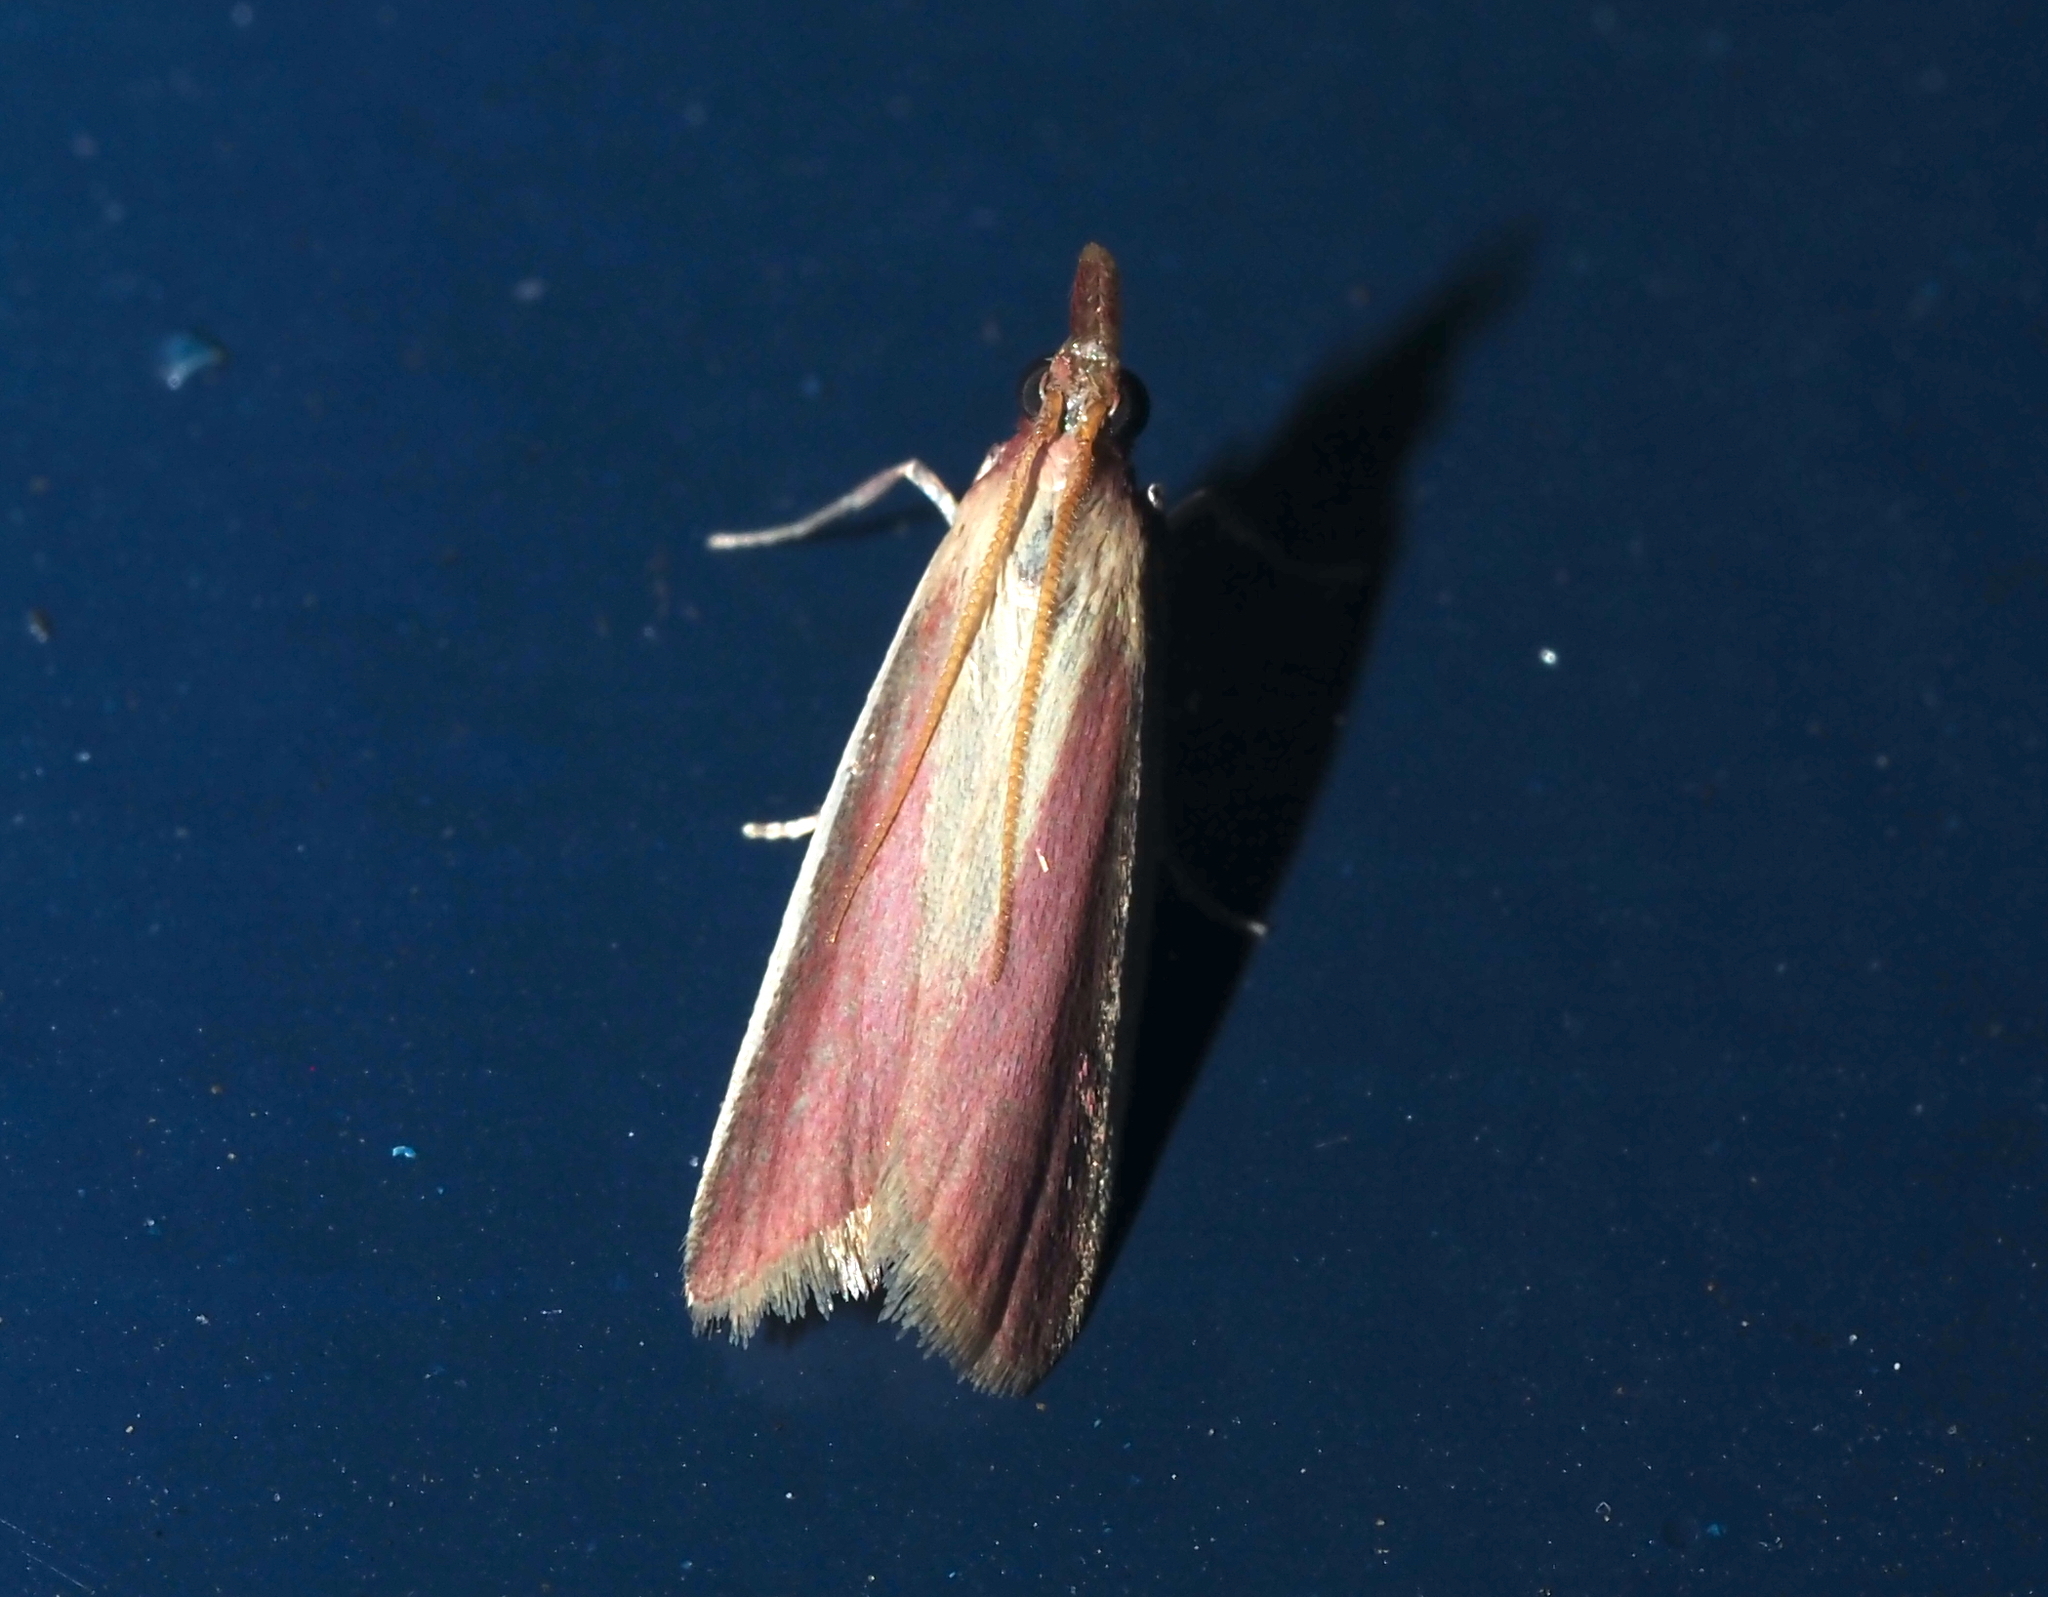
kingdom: Animalia
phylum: Arthropoda
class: Insecta
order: Lepidoptera
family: Pyralidae
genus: Peoria
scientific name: Peoria approximella
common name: Carmine snout
